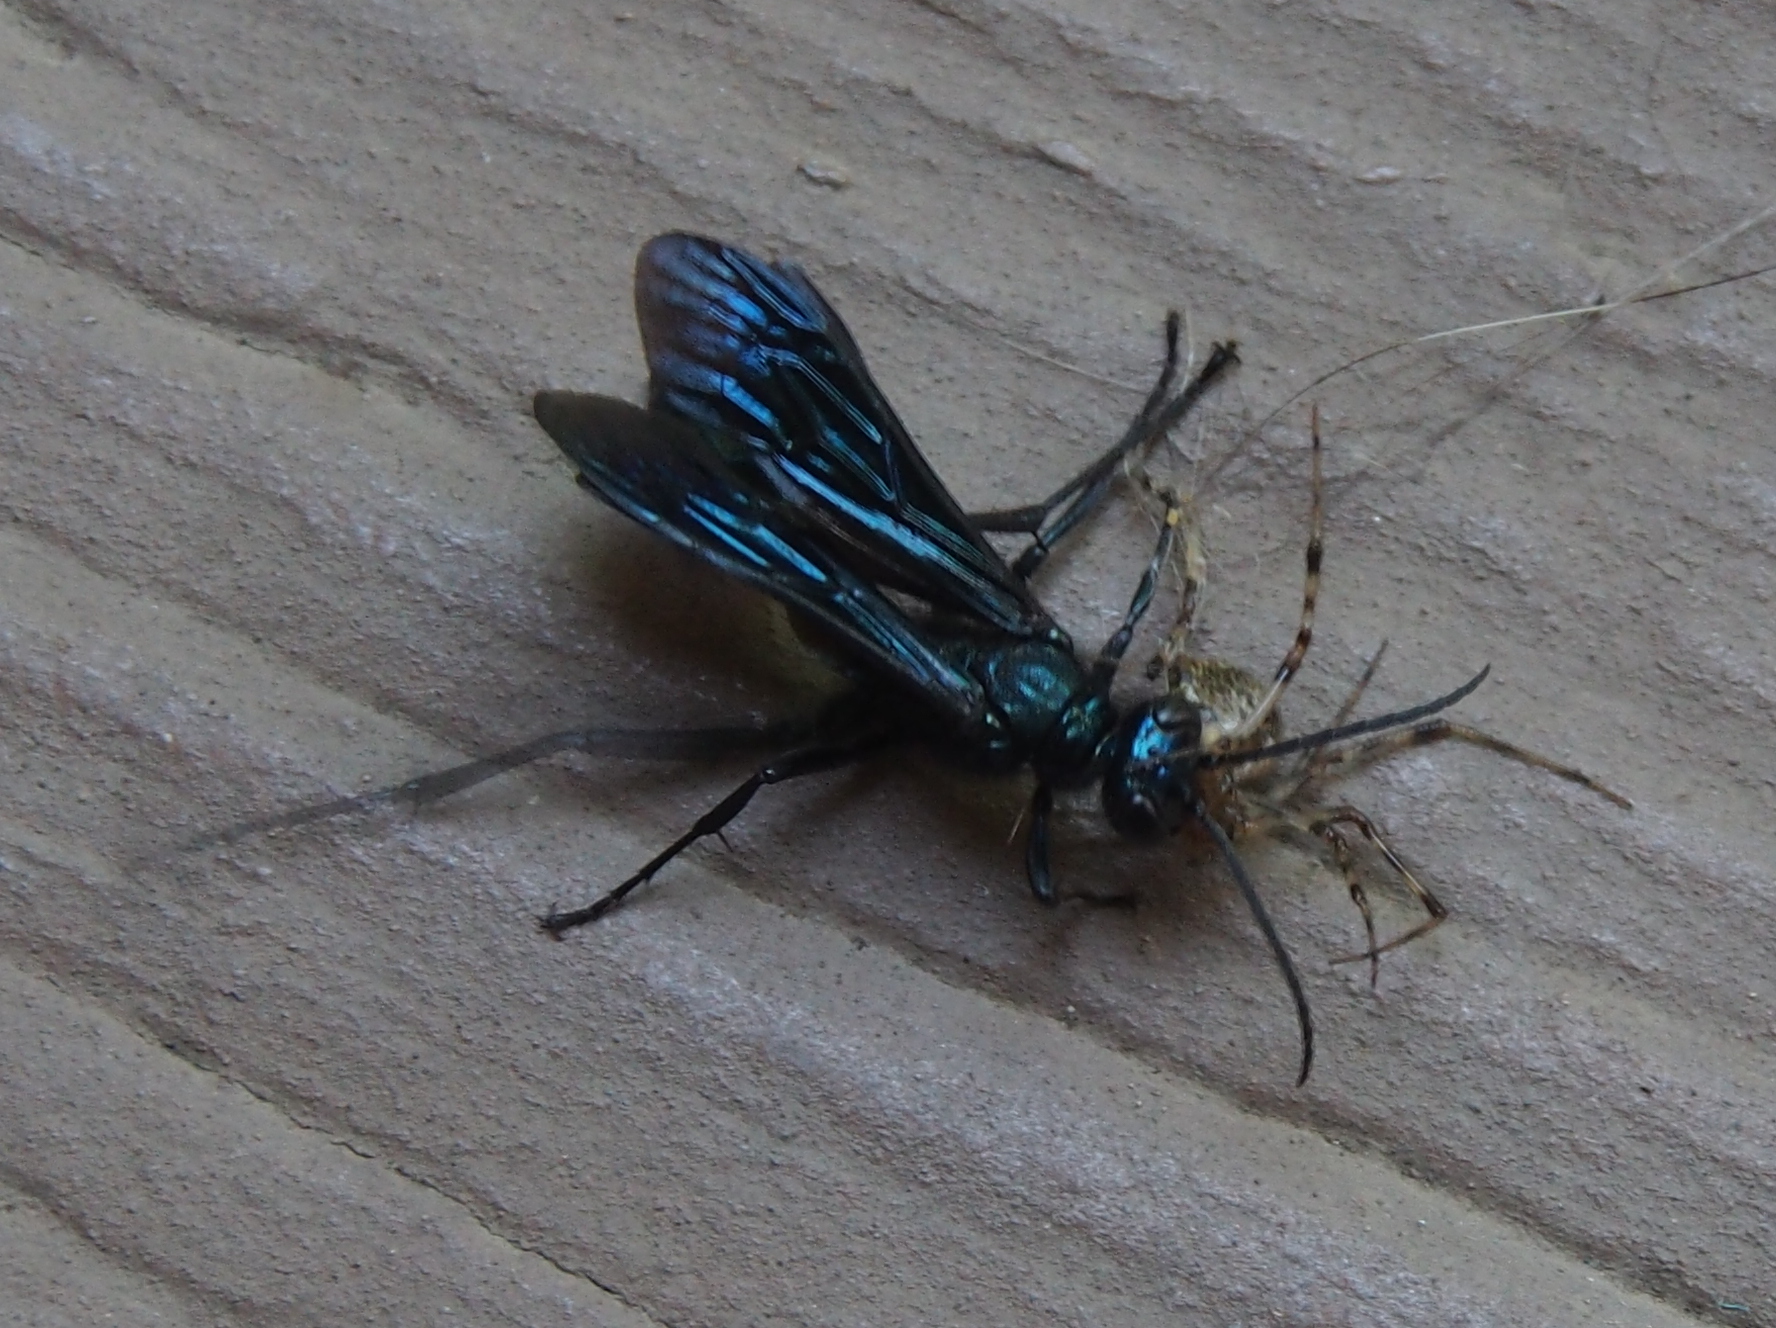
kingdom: Animalia
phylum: Arthropoda
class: Insecta
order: Hymenoptera
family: Sphecidae
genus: Chalybion
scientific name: Chalybion californicum
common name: Mud dauber
